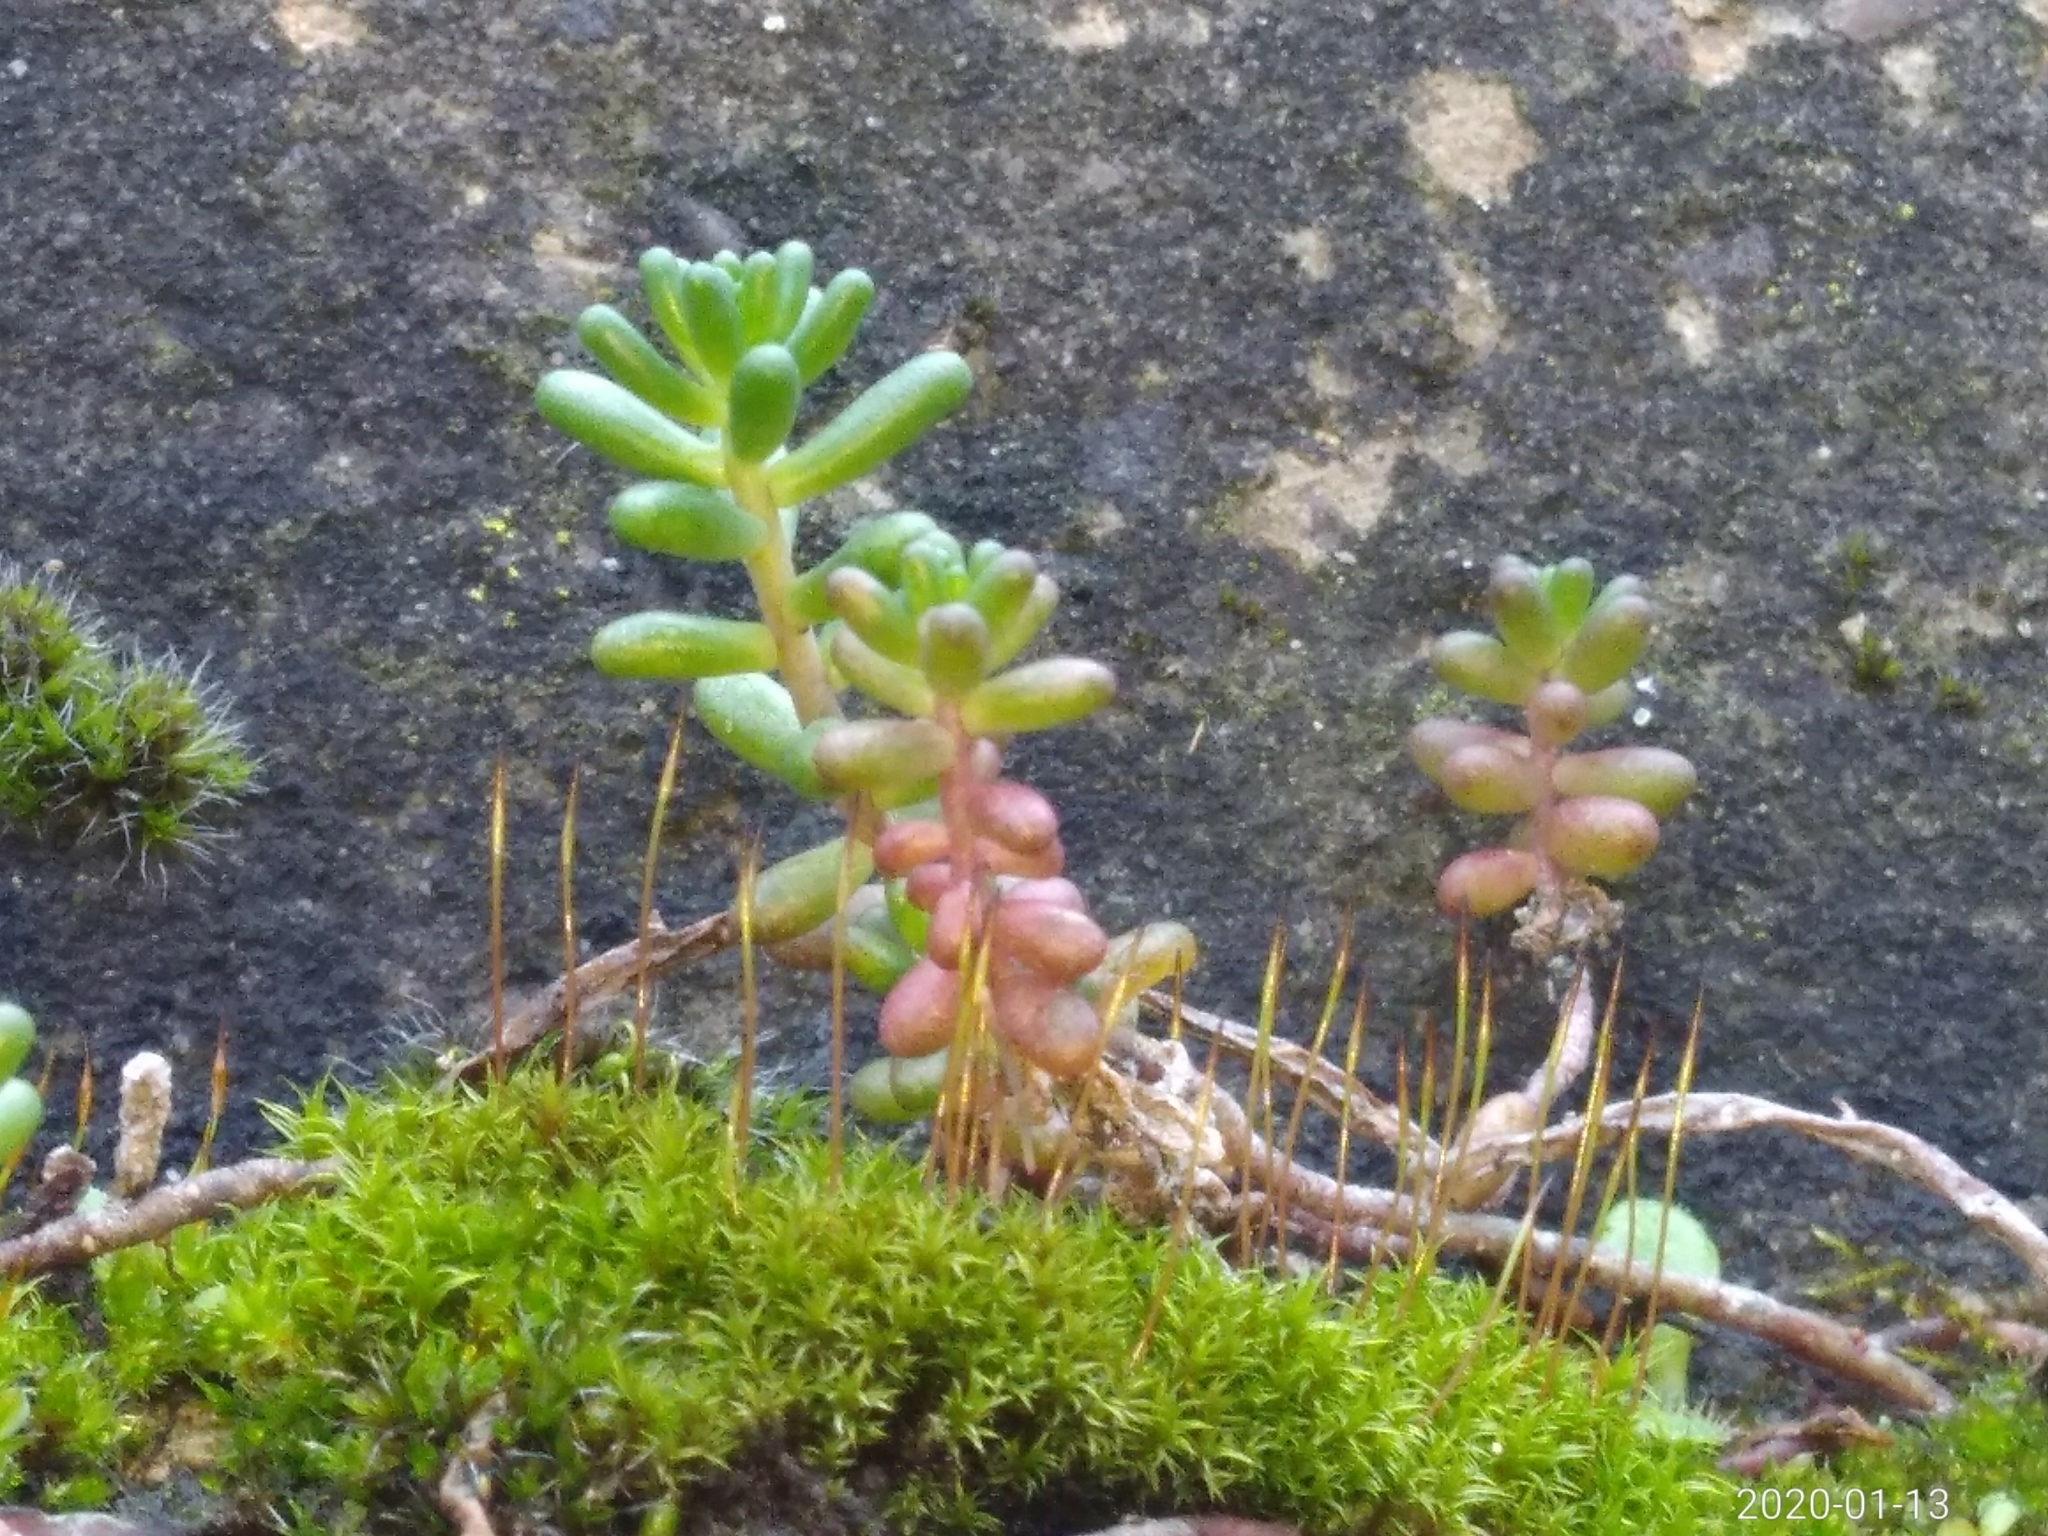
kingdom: Plantae
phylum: Tracheophyta
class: Magnoliopsida
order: Saxifragales
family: Crassulaceae
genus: Sedum
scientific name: Sedum album
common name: White stonecrop
